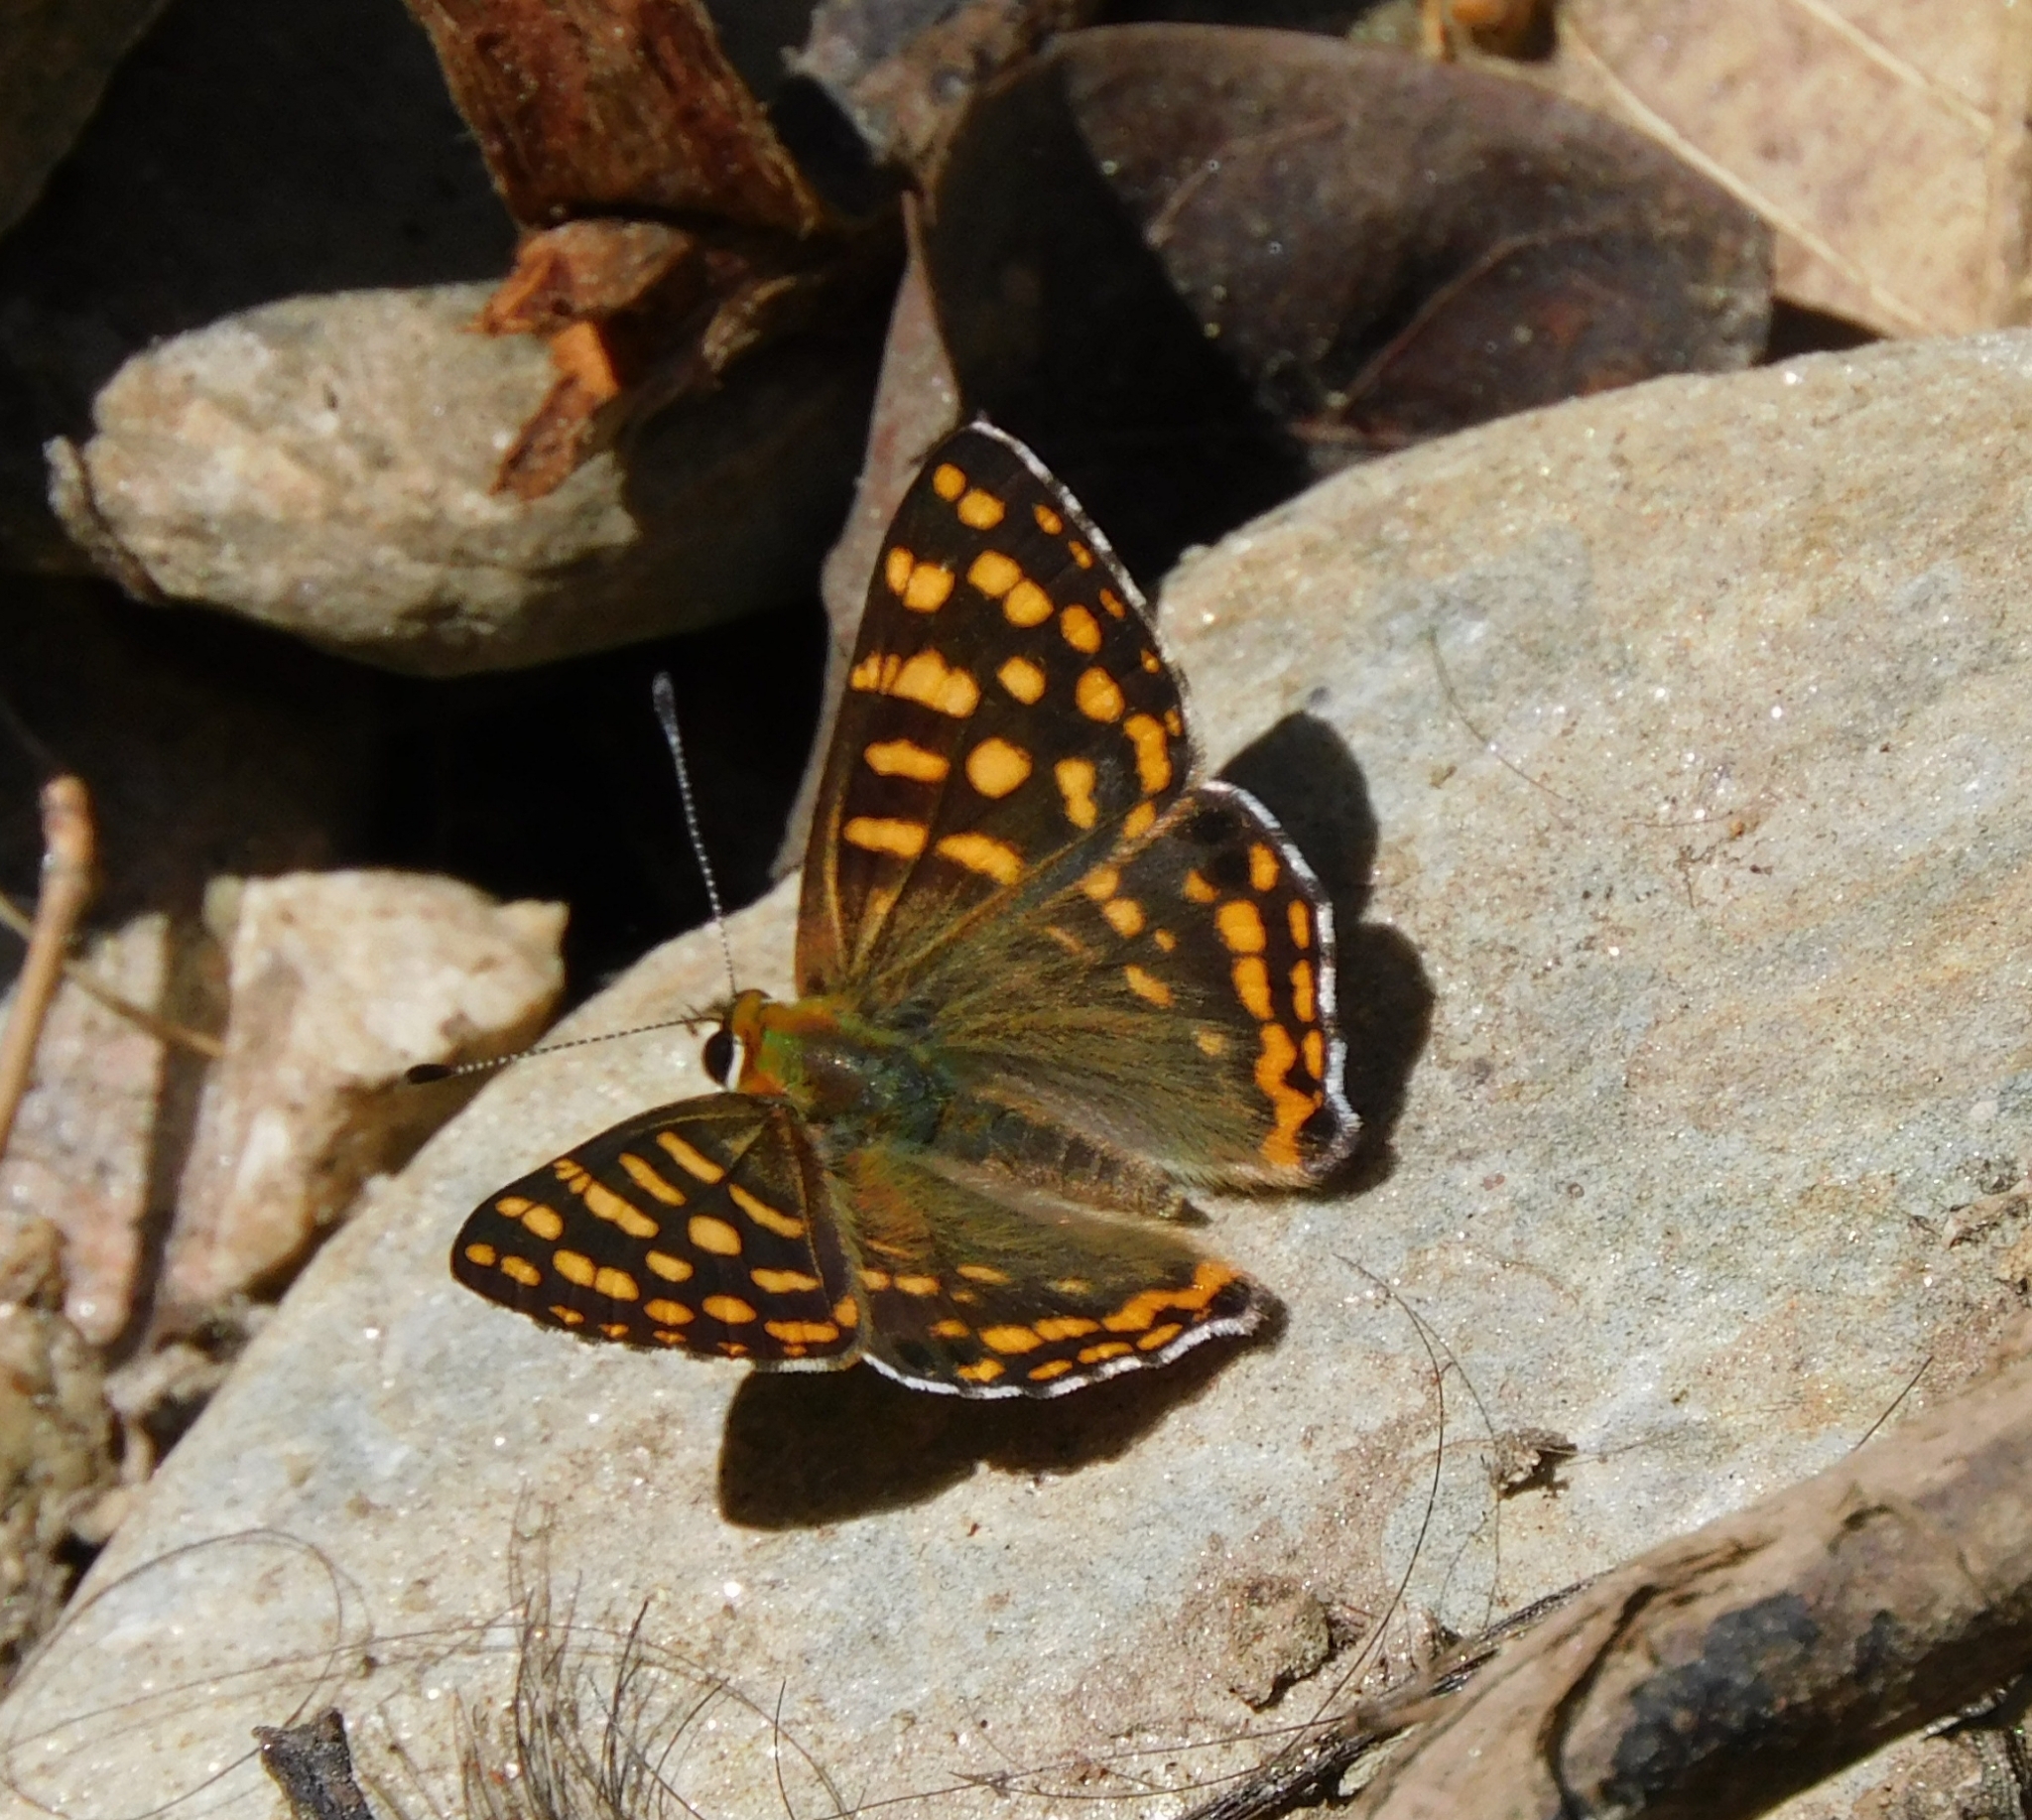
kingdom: Animalia
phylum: Arthropoda
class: Insecta
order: Lepidoptera
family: Lycaenidae
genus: Dodona
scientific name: Dodona durga
